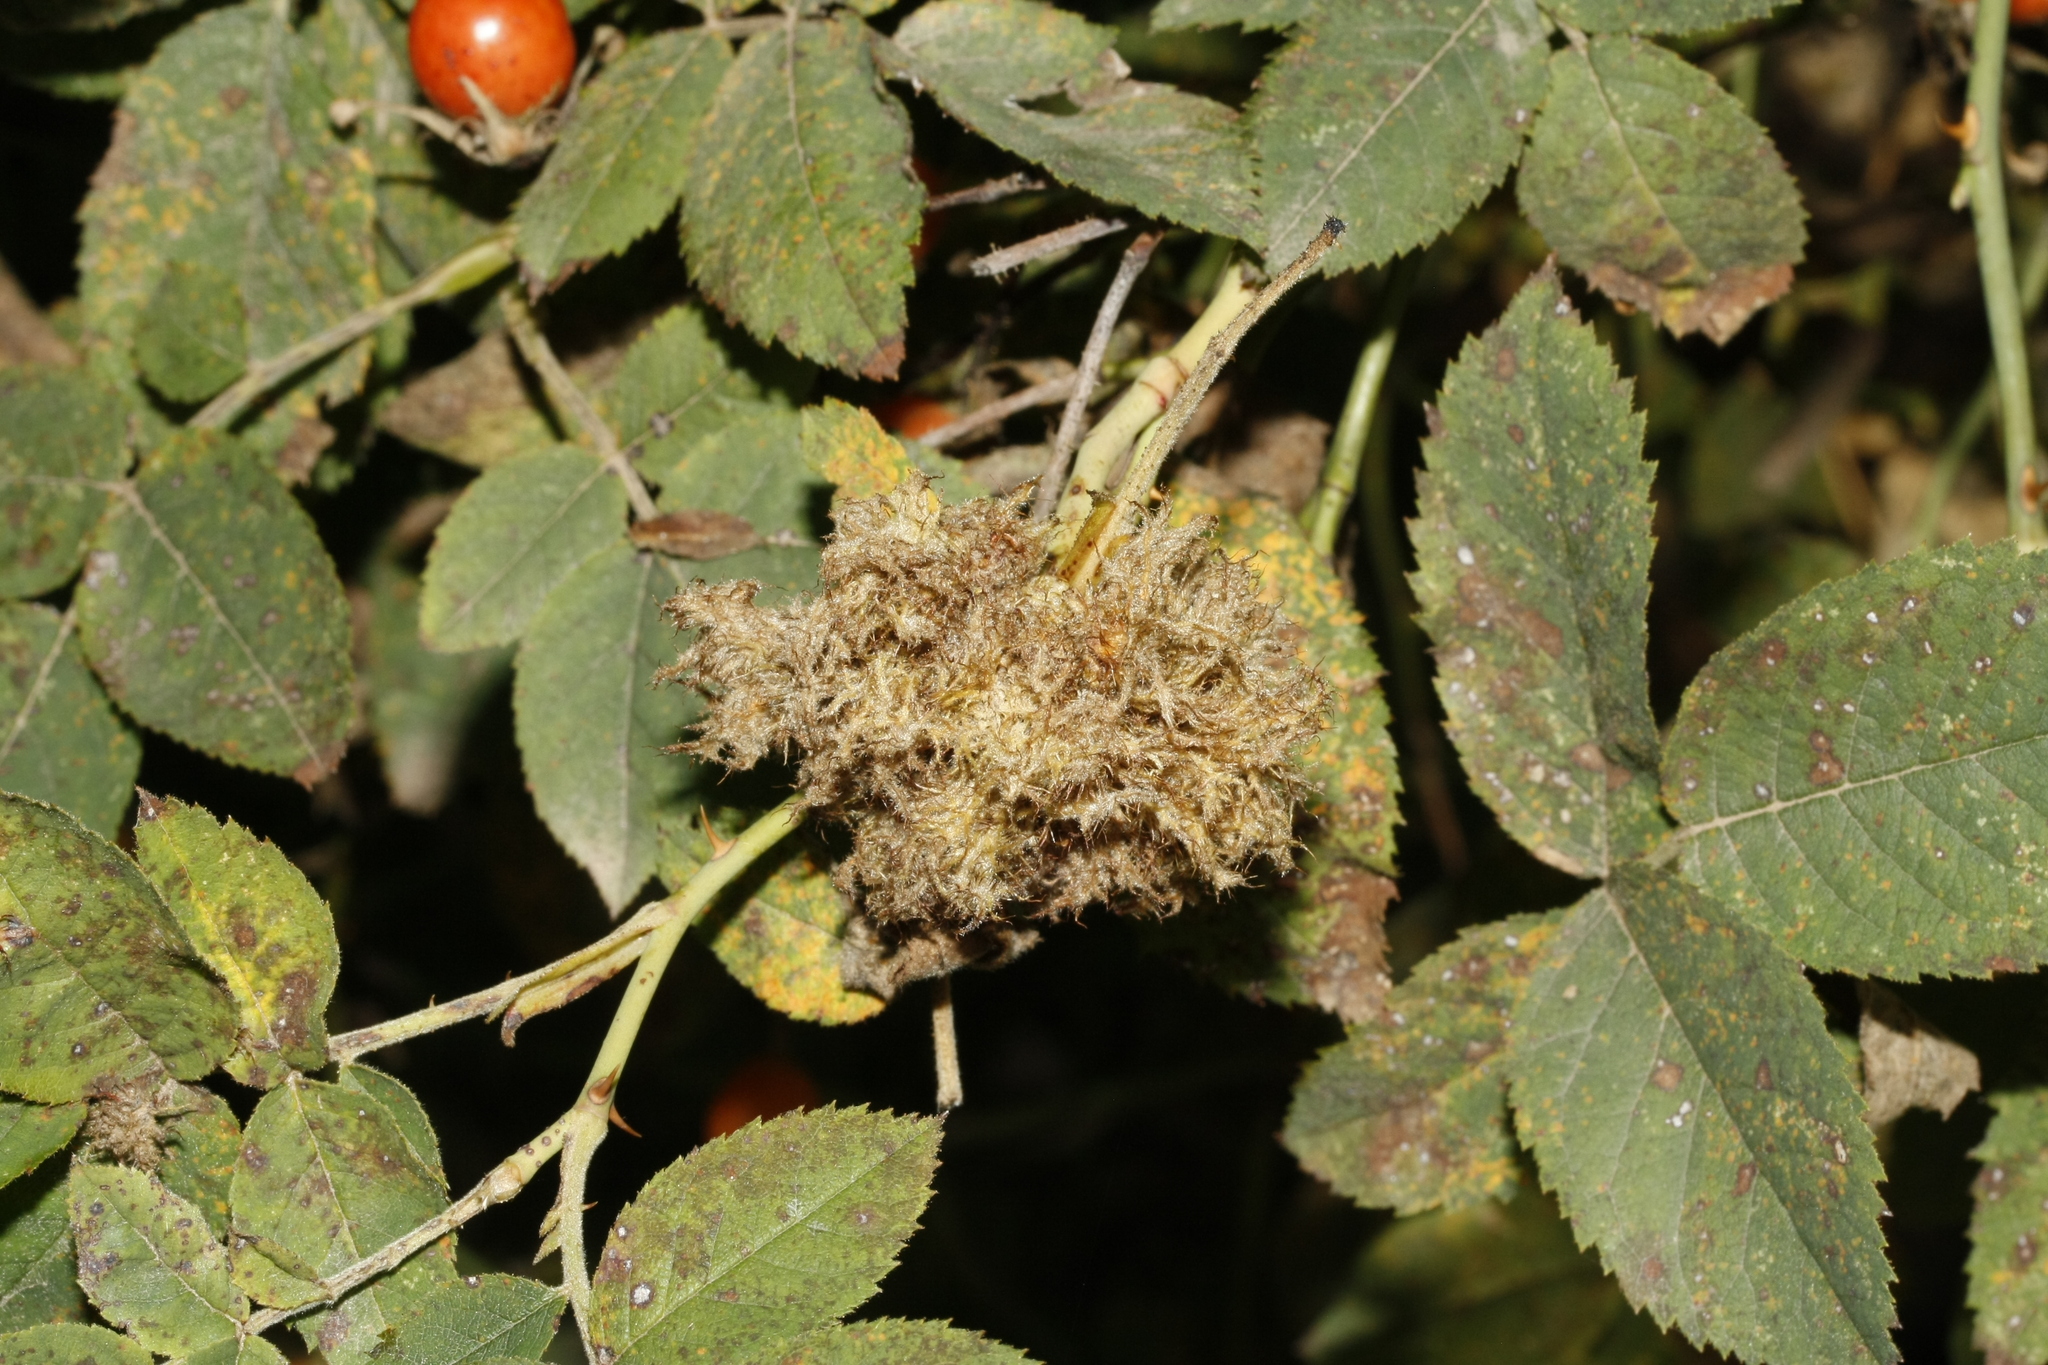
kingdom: Animalia
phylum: Arthropoda
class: Insecta
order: Hymenoptera
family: Cynipidae
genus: Diplolepis
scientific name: Diplolepis rosae
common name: Bedeguar gall
